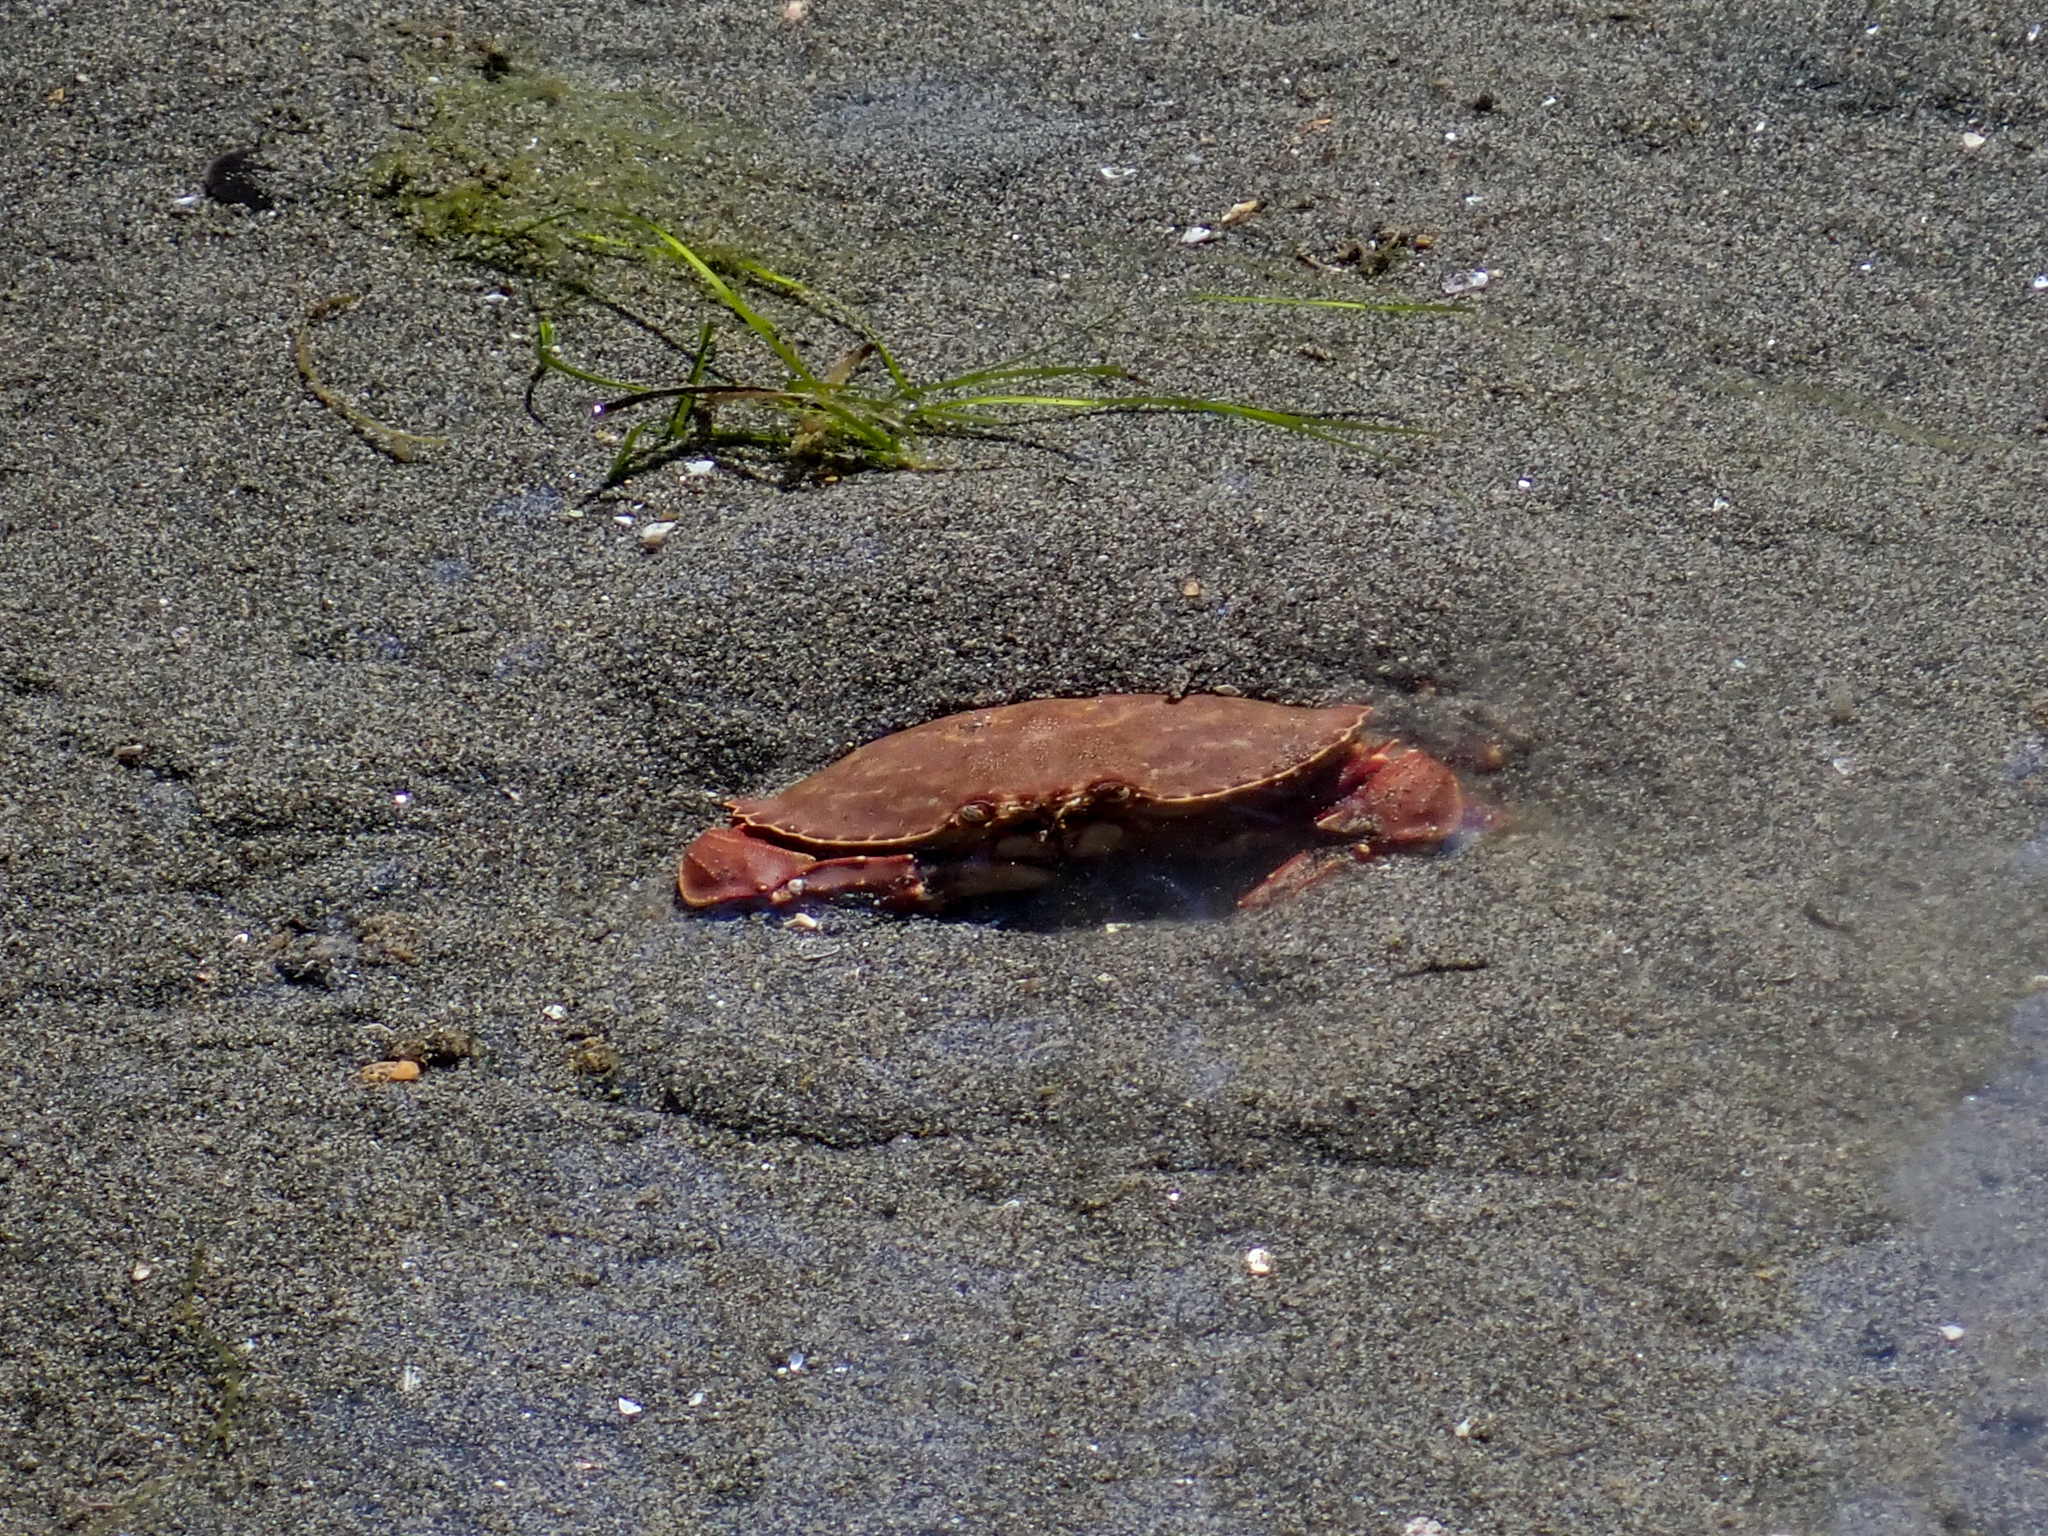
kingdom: Animalia
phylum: Arthropoda
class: Malacostraca
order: Decapoda
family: Cancridae
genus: Metacarcinus
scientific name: Metacarcinus gracilis
